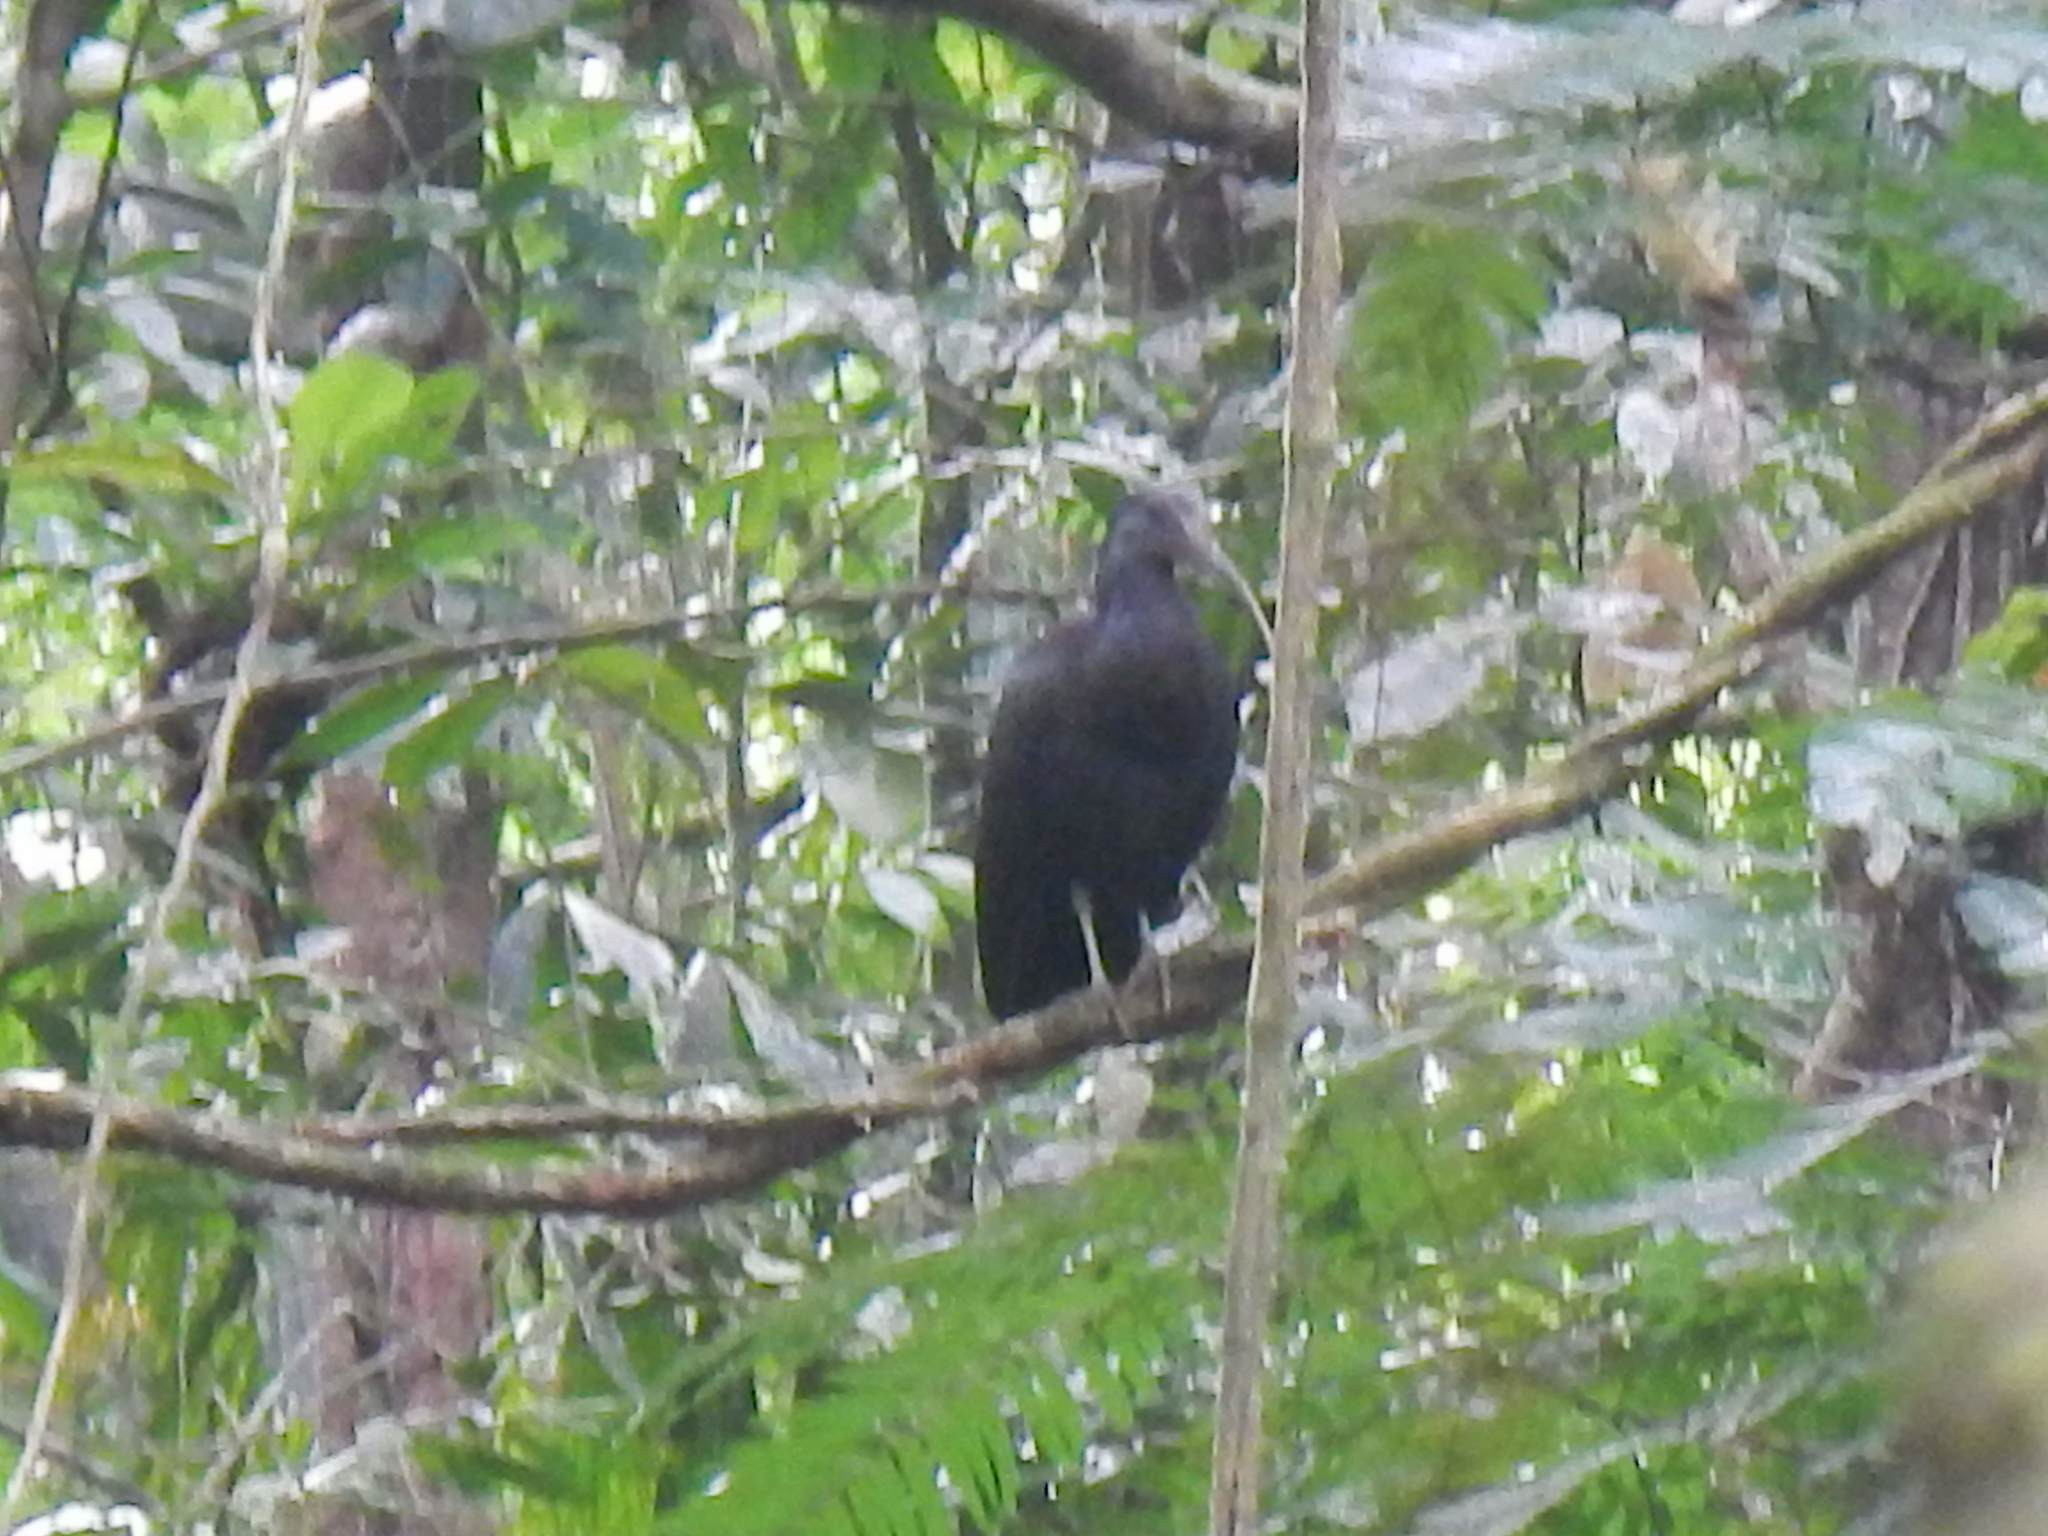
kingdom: Animalia
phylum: Chordata
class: Aves
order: Pelecaniformes
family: Threskiornithidae
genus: Mesembrinibis
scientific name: Mesembrinibis cayennensis
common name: Green ibis
